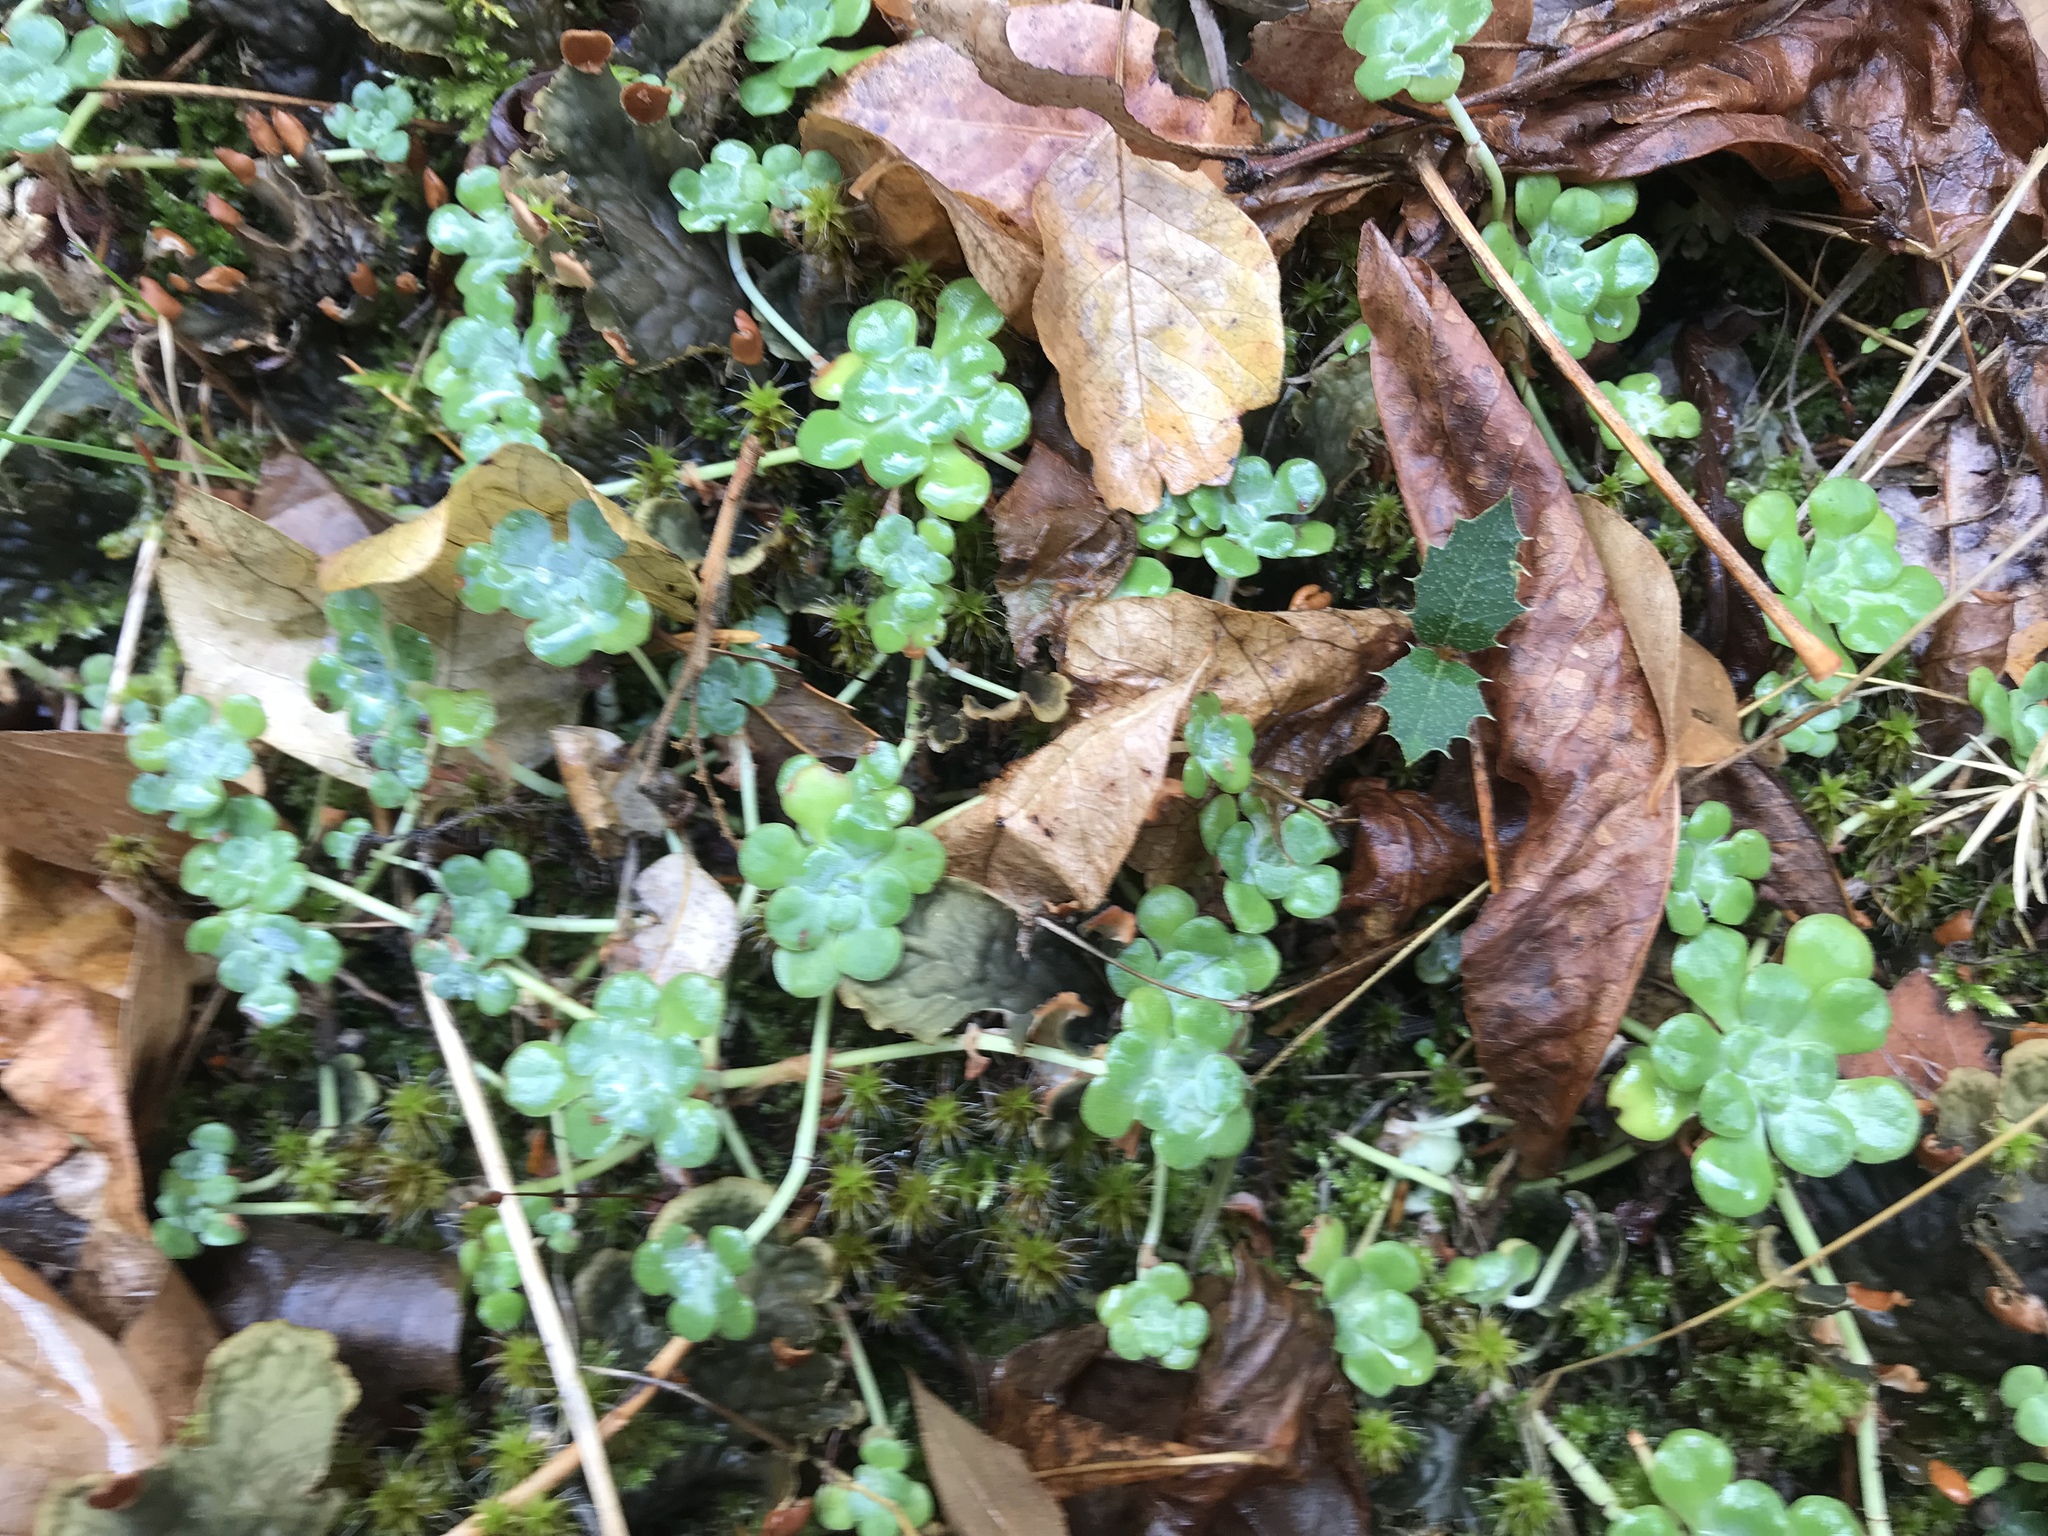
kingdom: Plantae
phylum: Tracheophyta
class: Magnoliopsida
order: Saxifragales
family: Crassulaceae
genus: Sedum
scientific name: Sedum spathulifolium
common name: Colorado stonecrop
